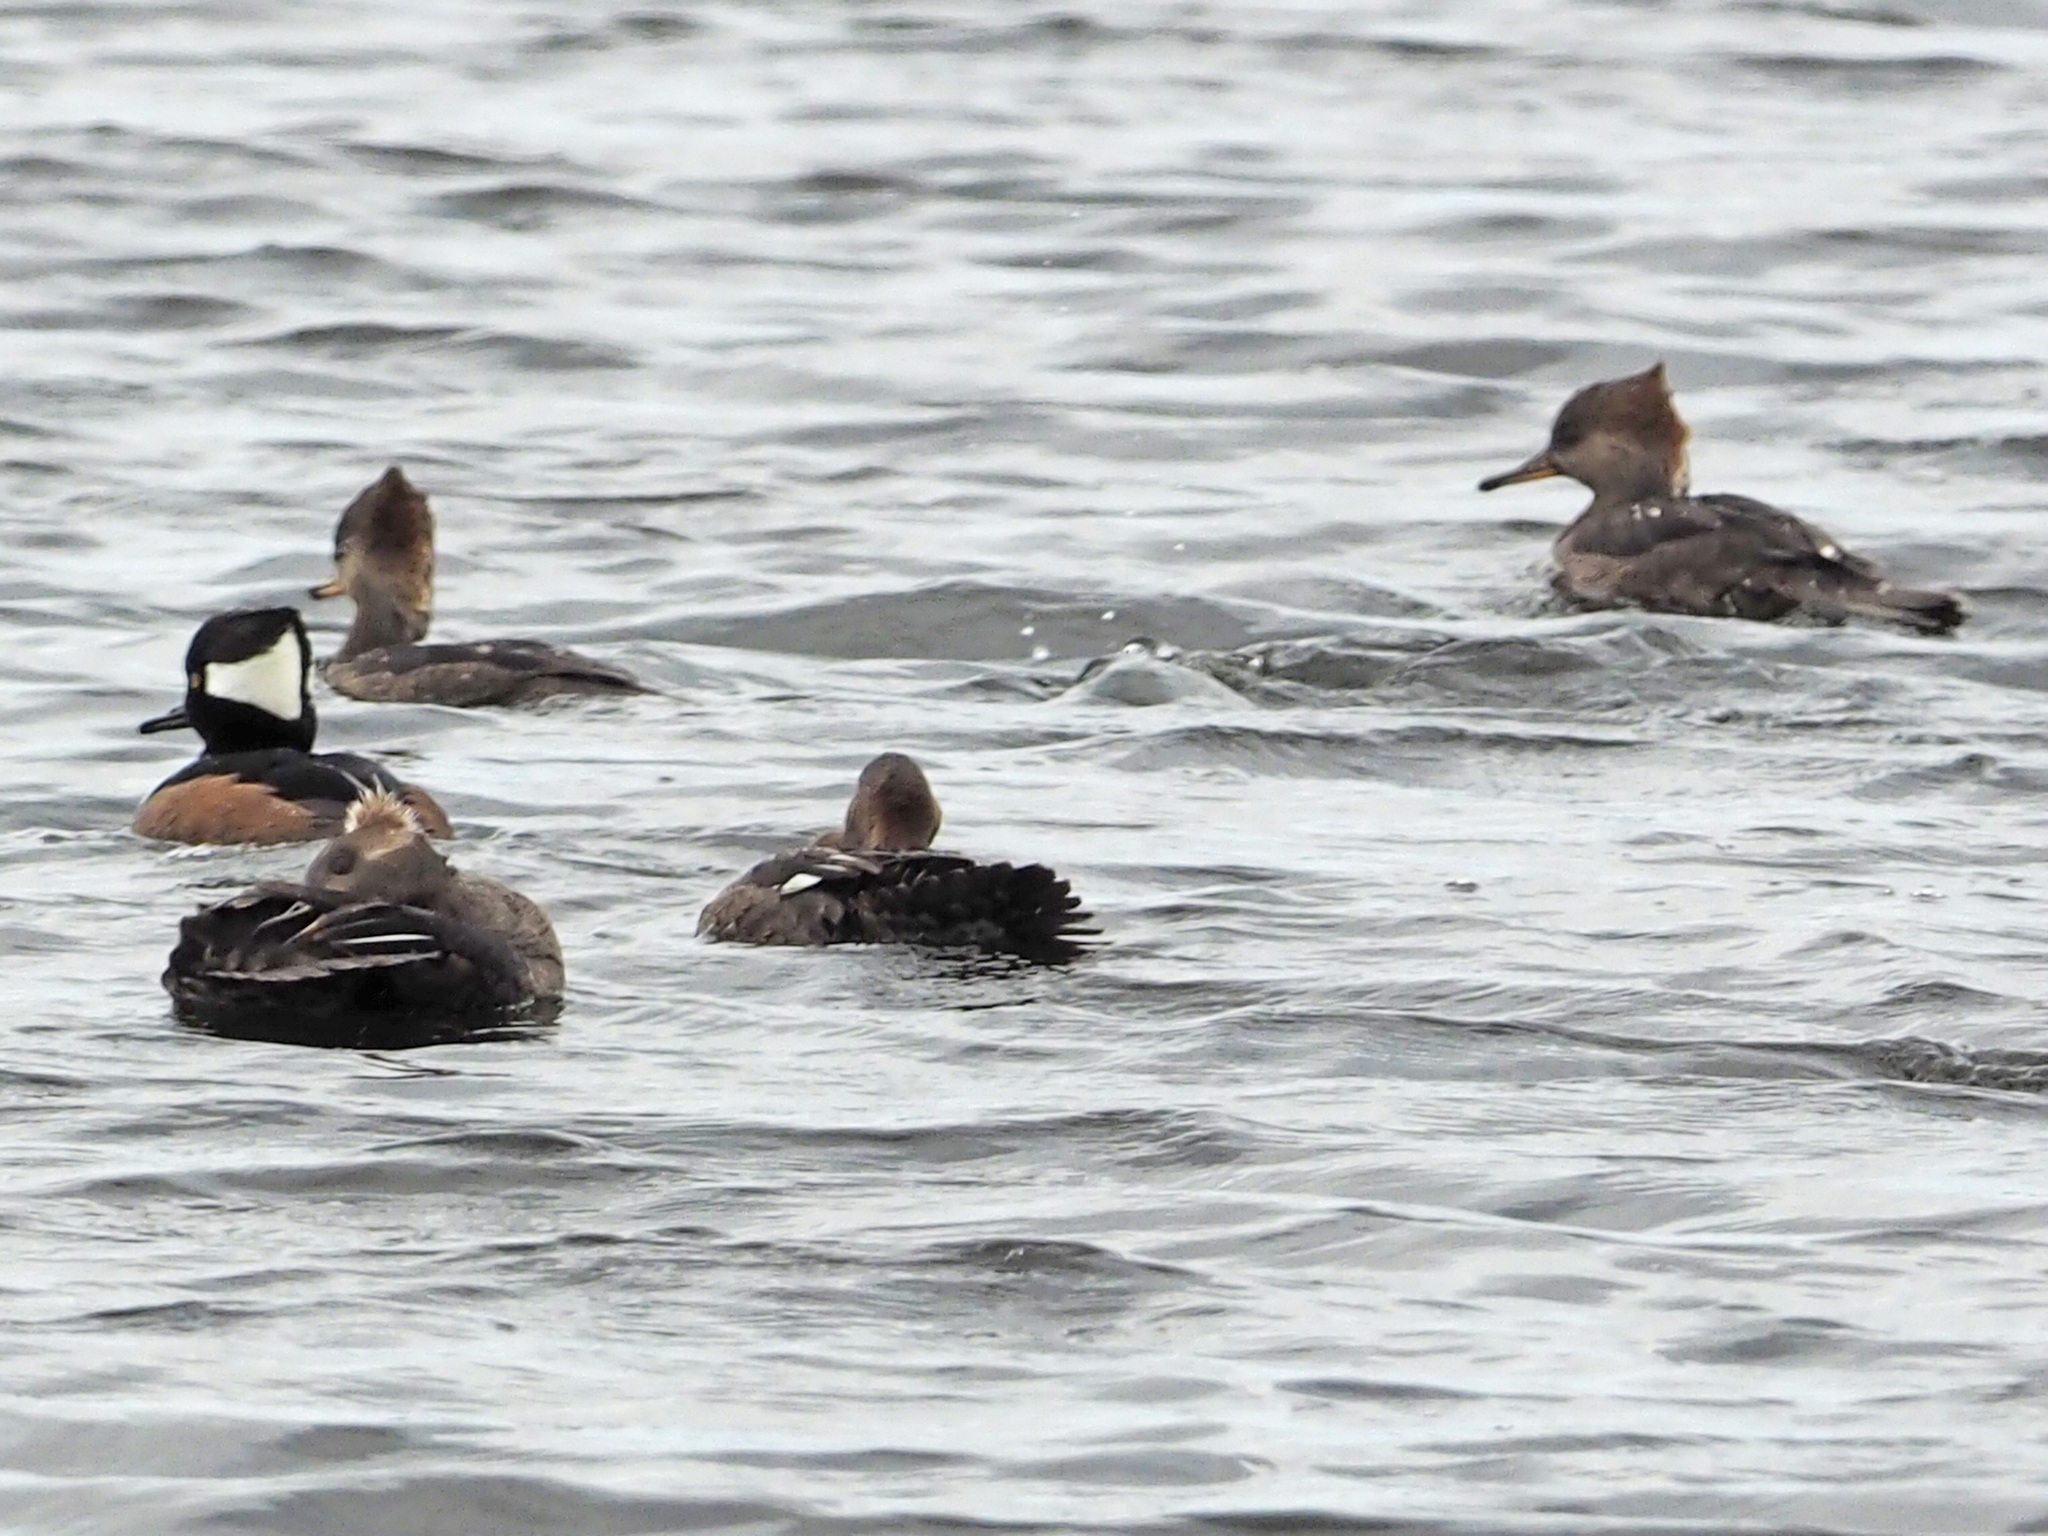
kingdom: Animalia
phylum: Chordata
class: Aves
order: Anseriformes
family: Anatidae
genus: Lophodytes
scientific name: Lophodytes cucullatus
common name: Hooded merganser
